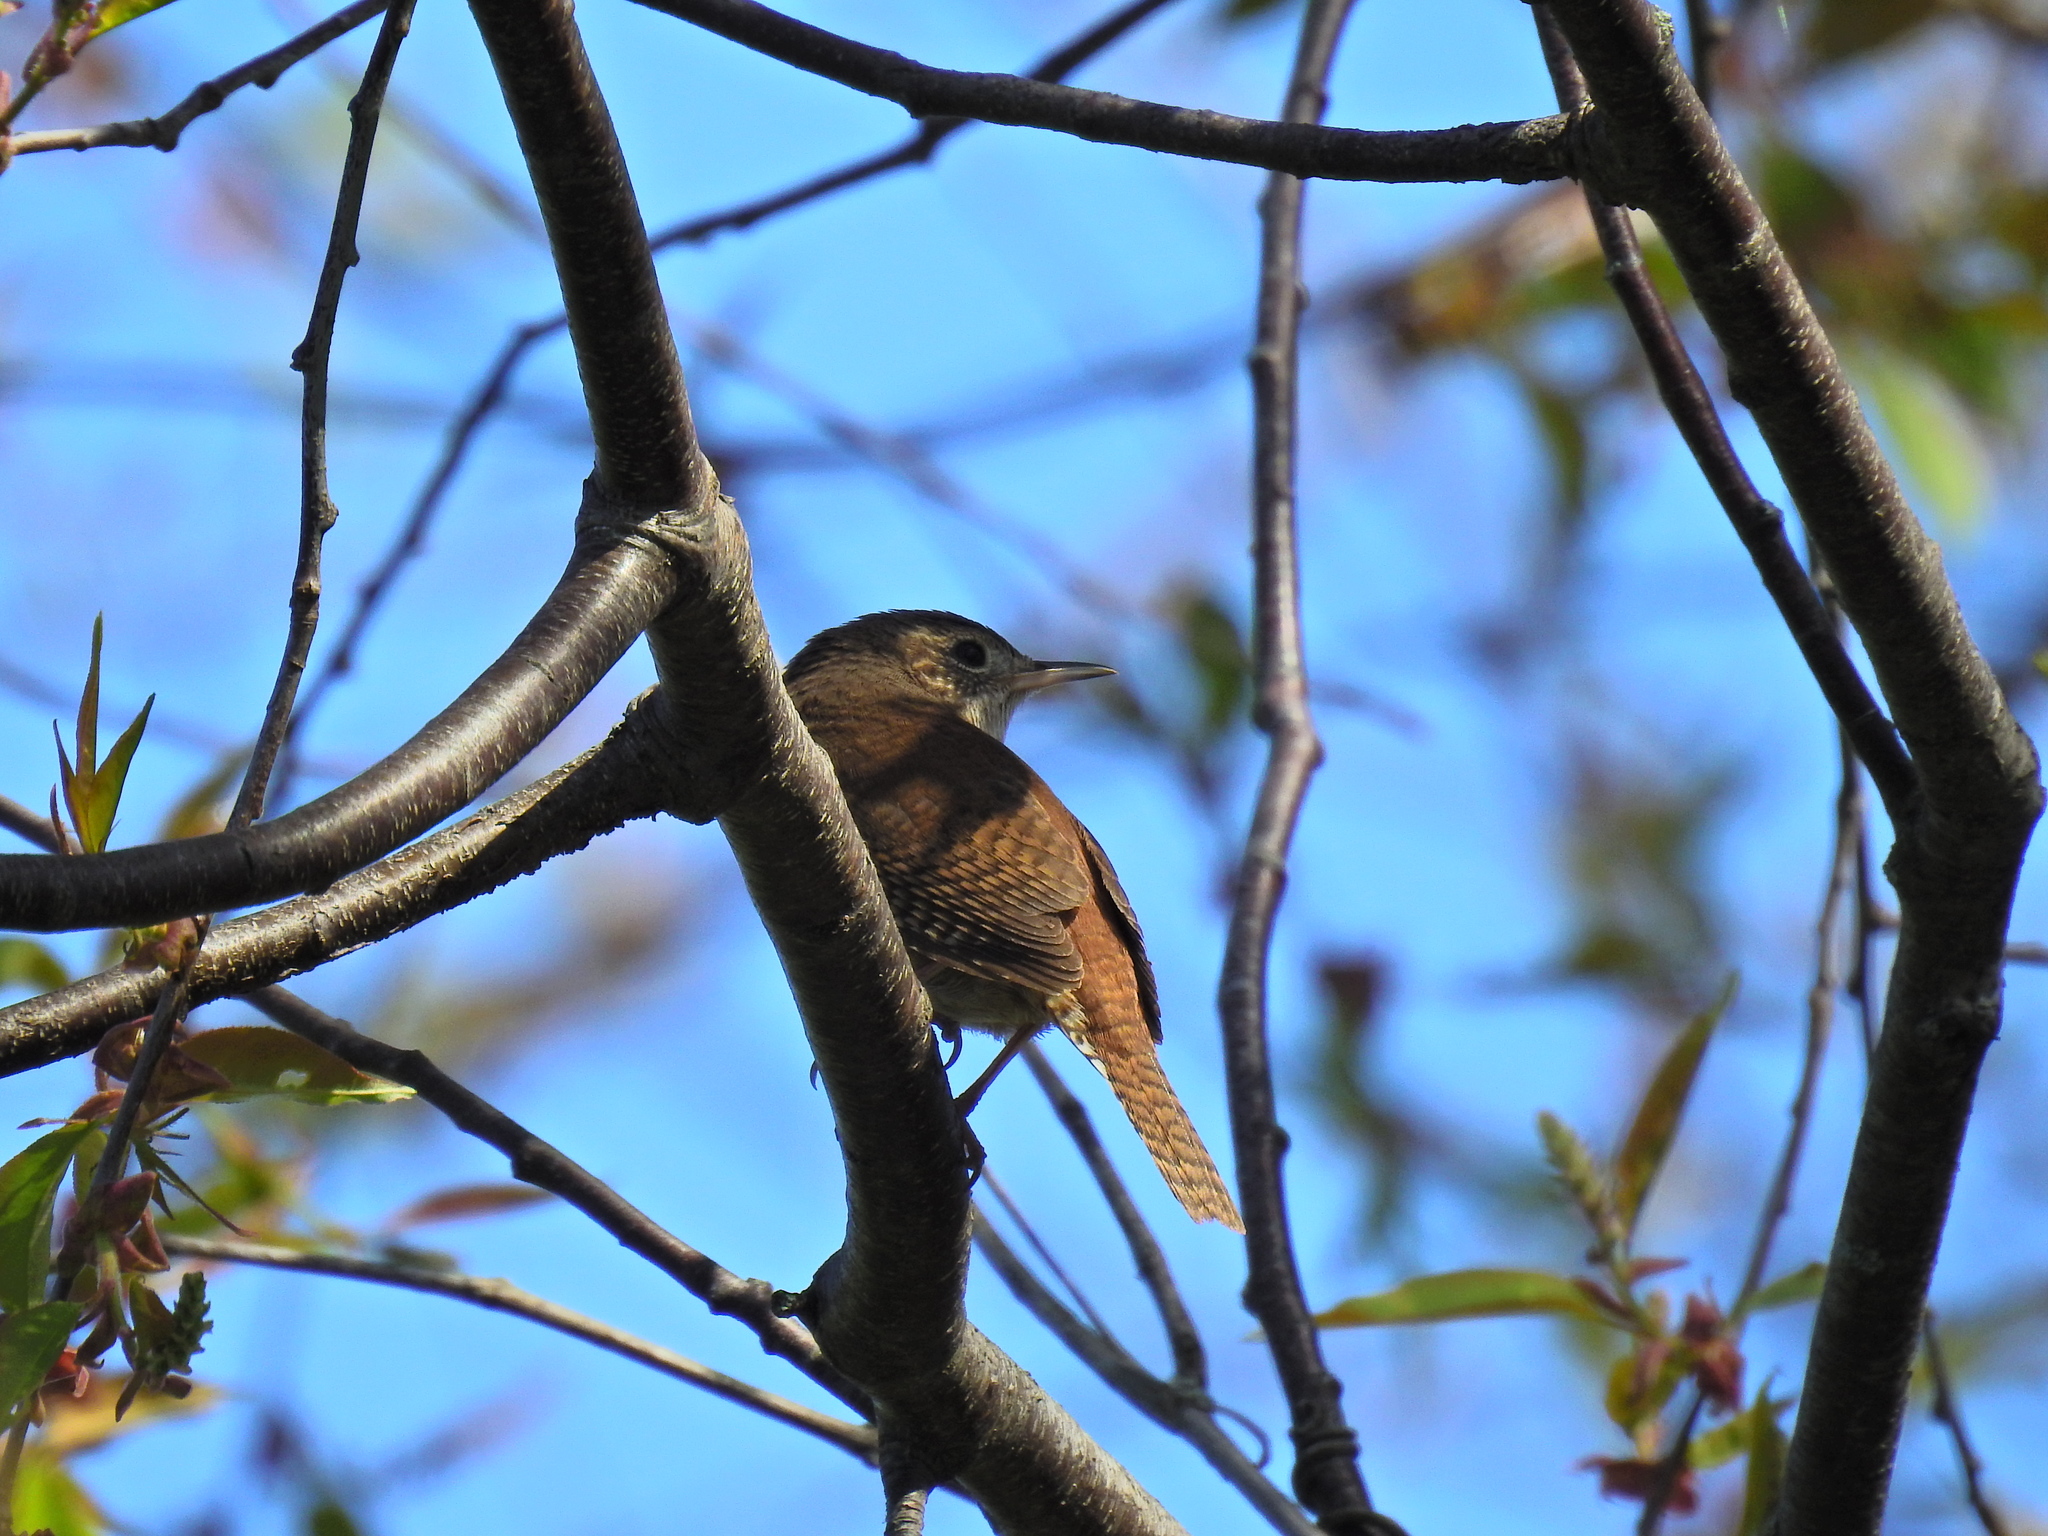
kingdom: Animalia
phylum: Chordata
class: Aves
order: Passeriformes
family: Troglodytidae
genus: Troglodytes
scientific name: Troglodytes aedon
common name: House wren
